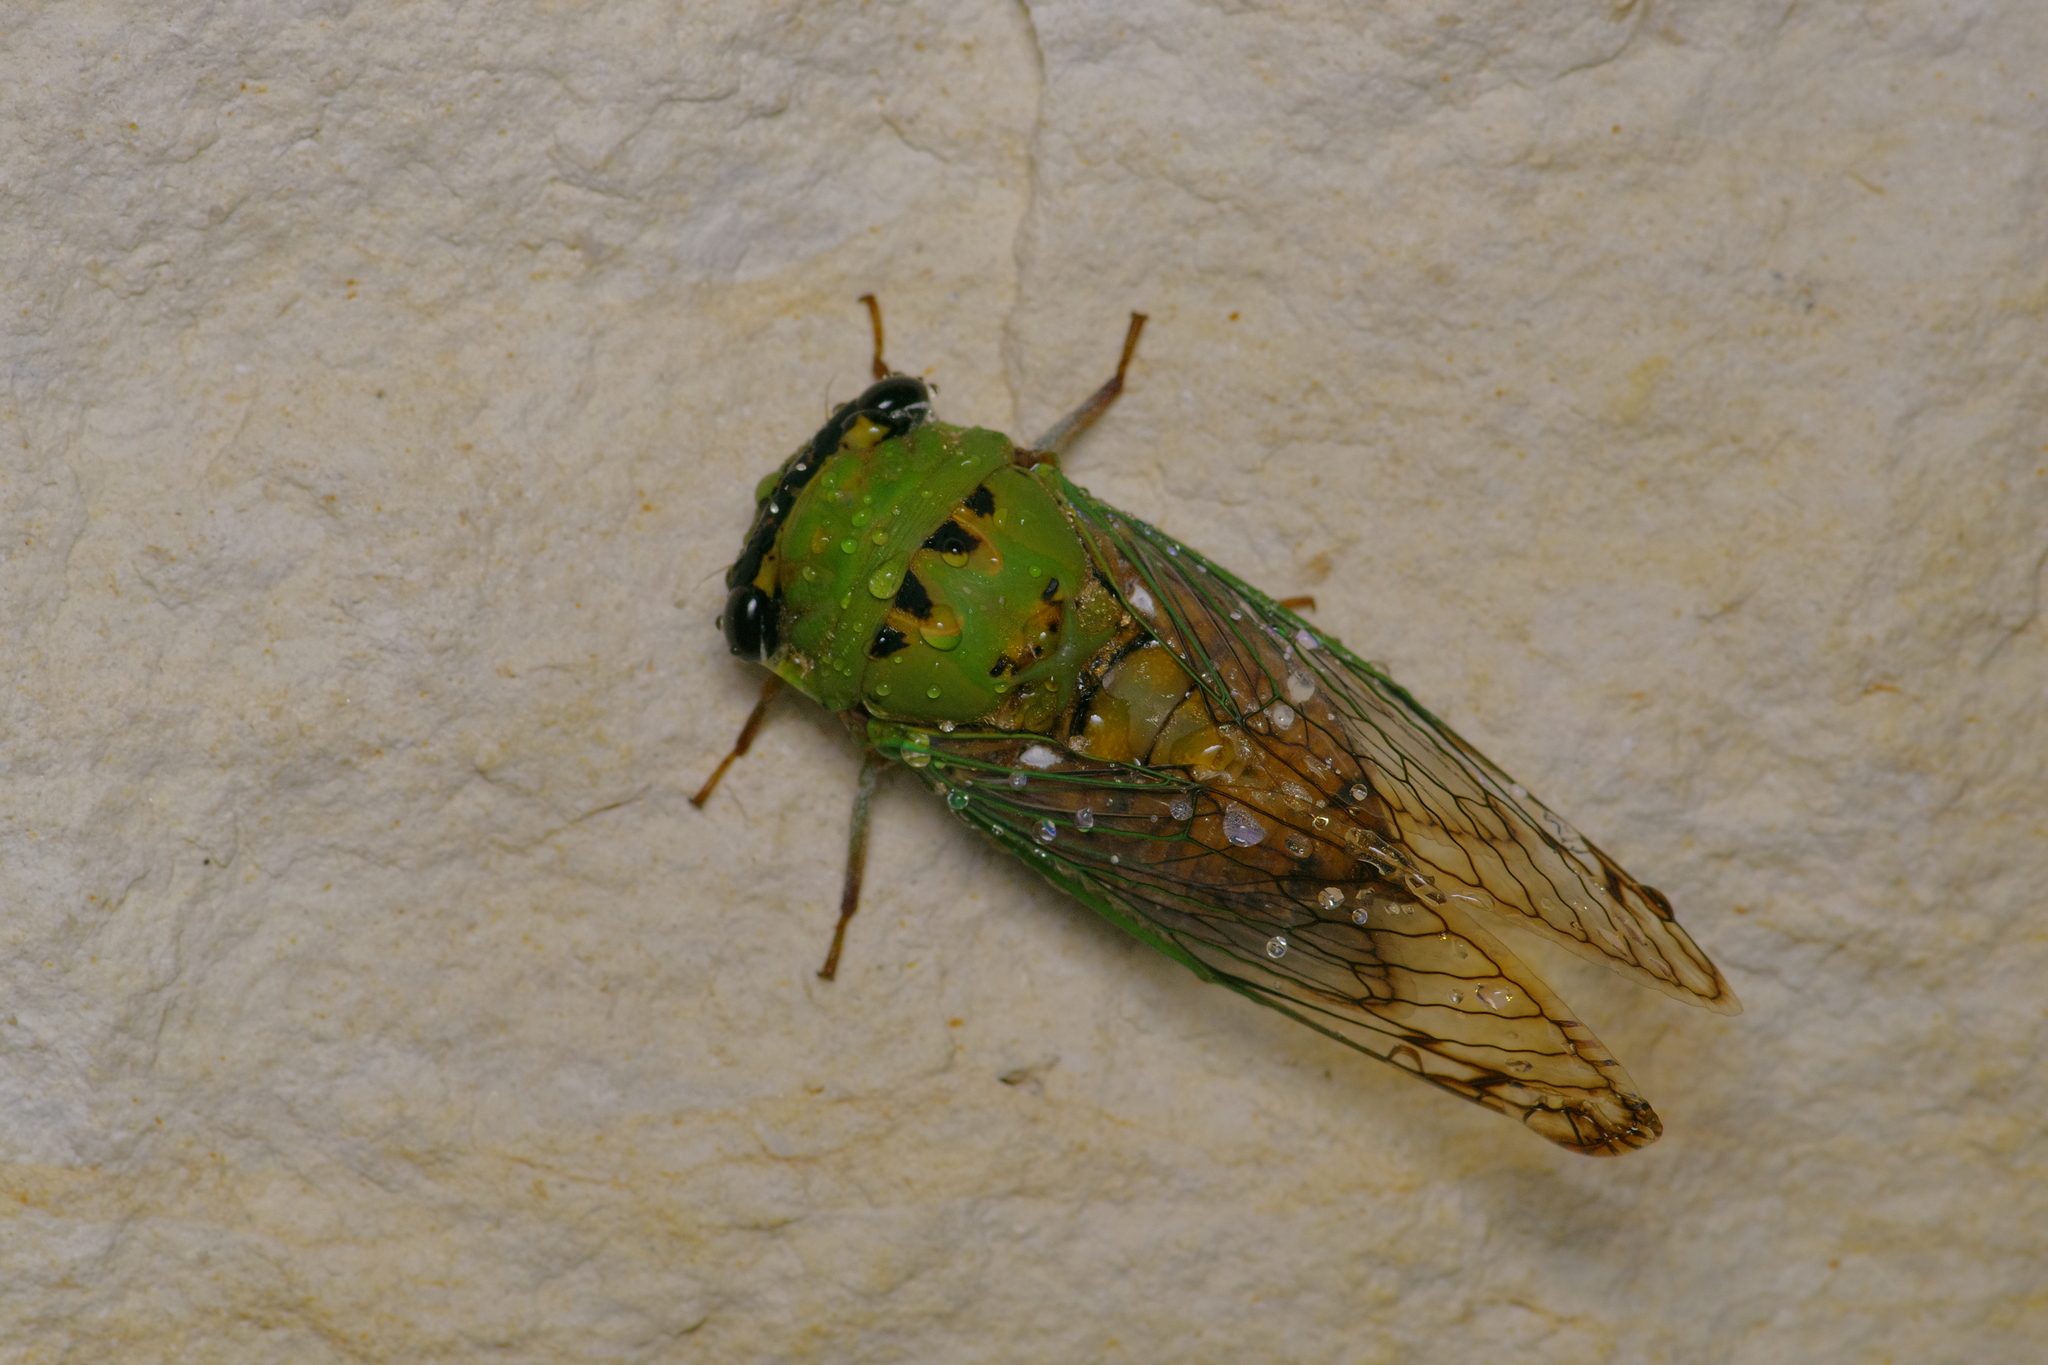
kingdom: Animalia
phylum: Arthropoda
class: Insecta
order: Hemiptera
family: Cicadidae
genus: Neotibicen
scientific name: Neotibicen superbus
